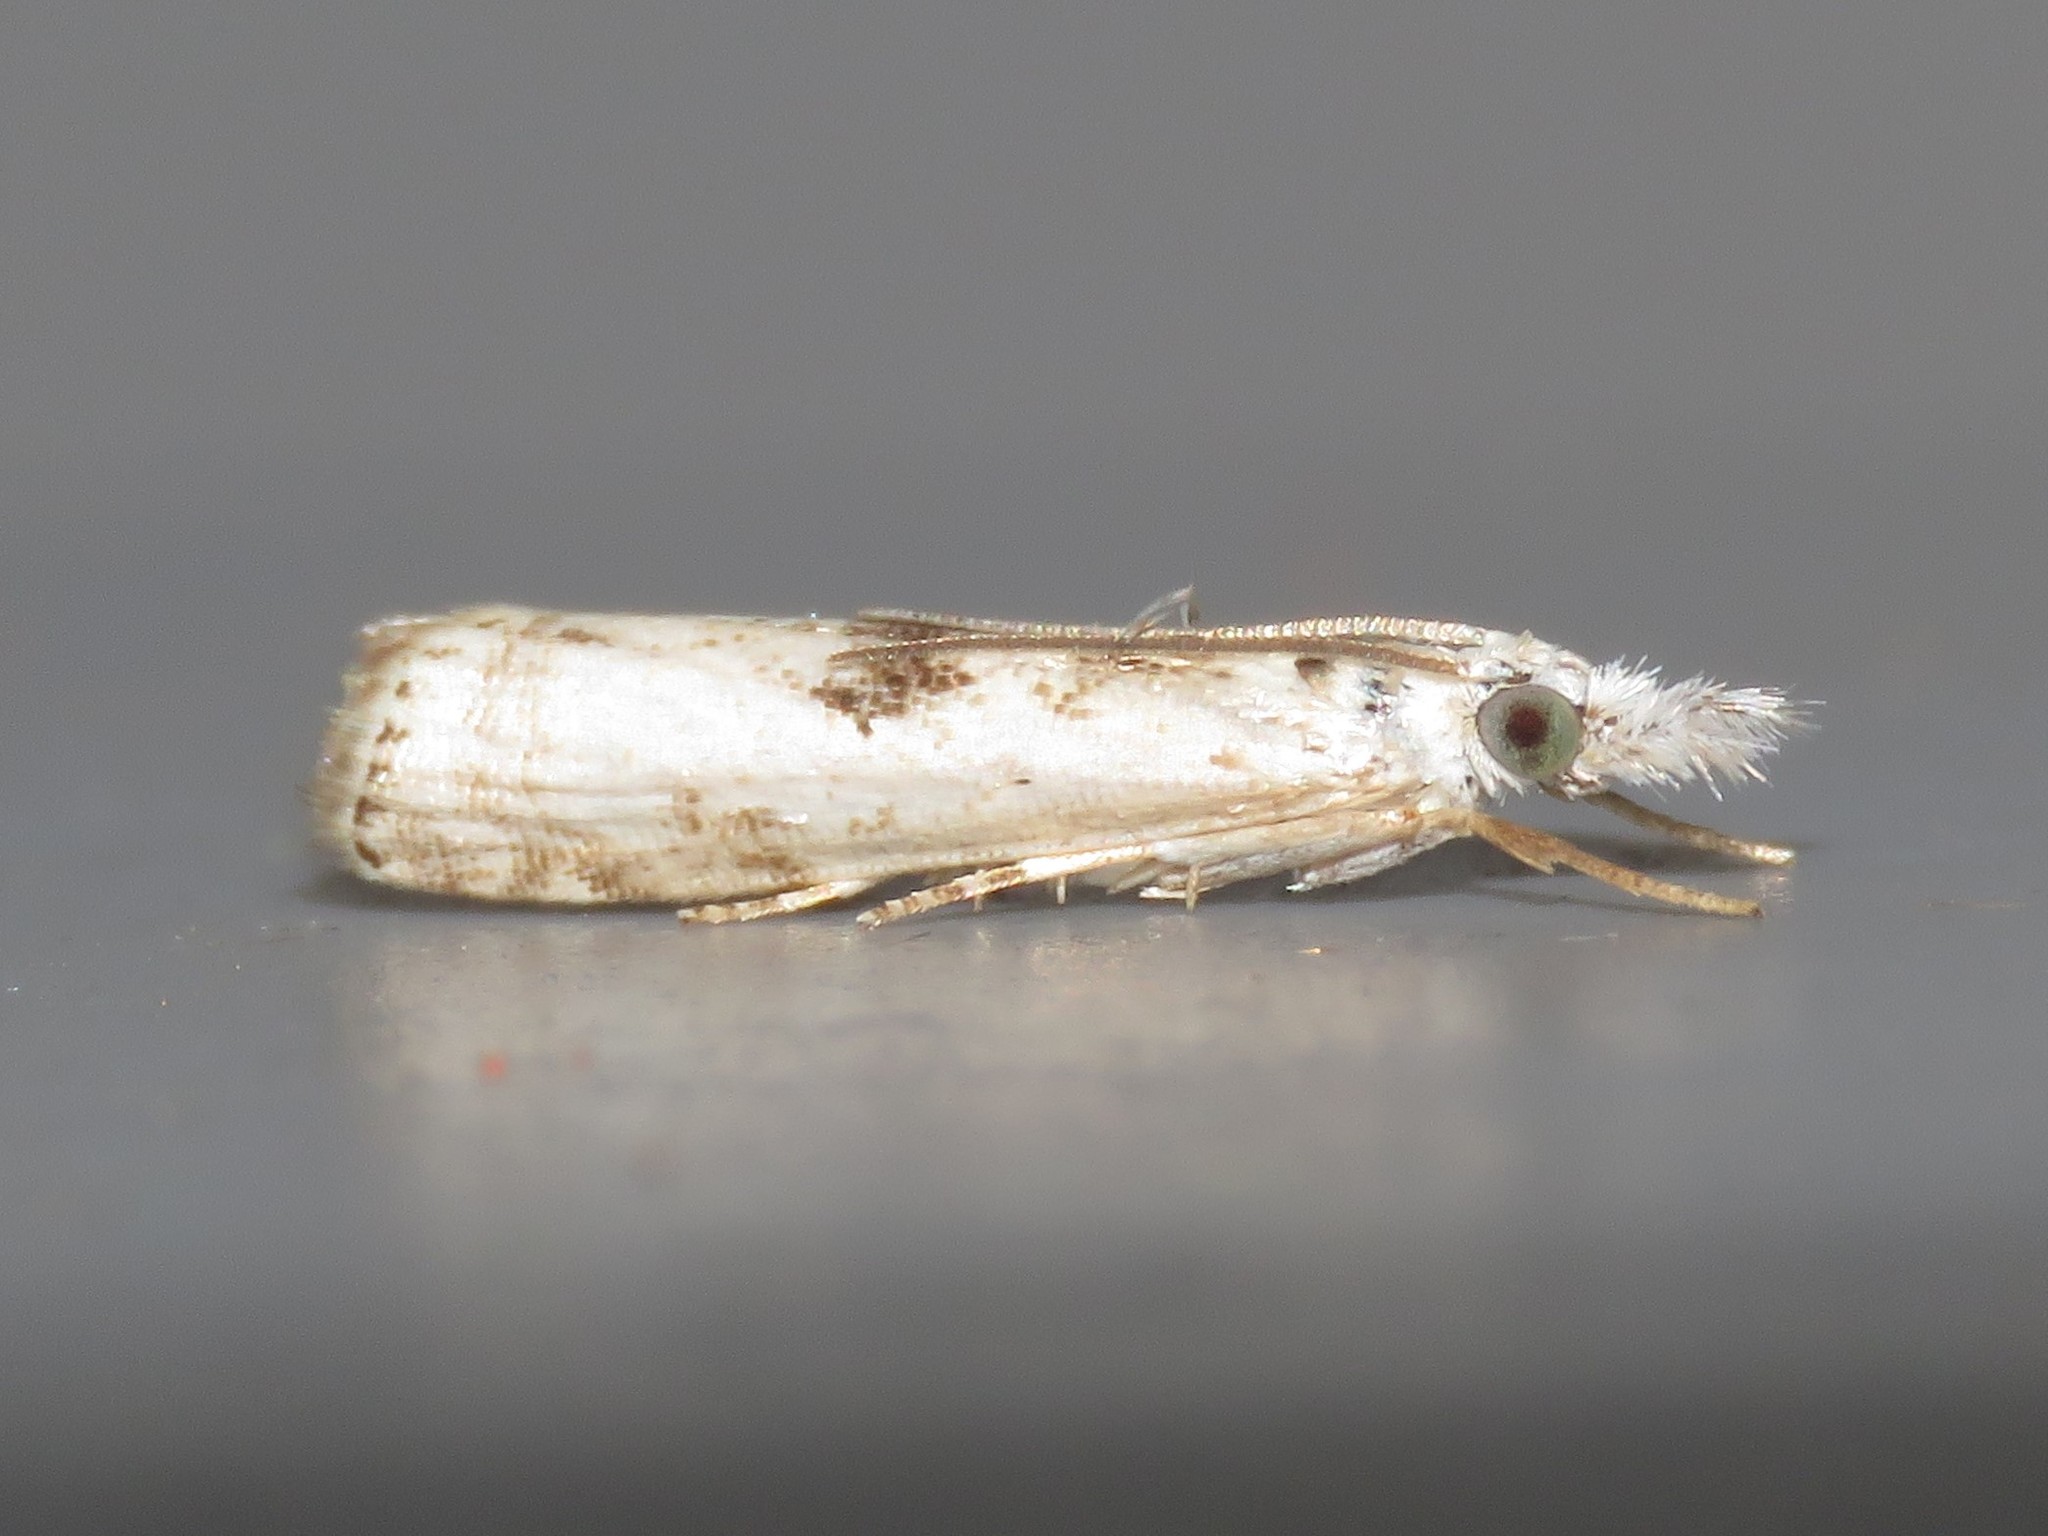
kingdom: Animalia
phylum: Arthropoda
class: Insecta
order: Lepidoptera
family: Crambidae
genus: Microcrambus
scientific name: Microcrambus immunellus
